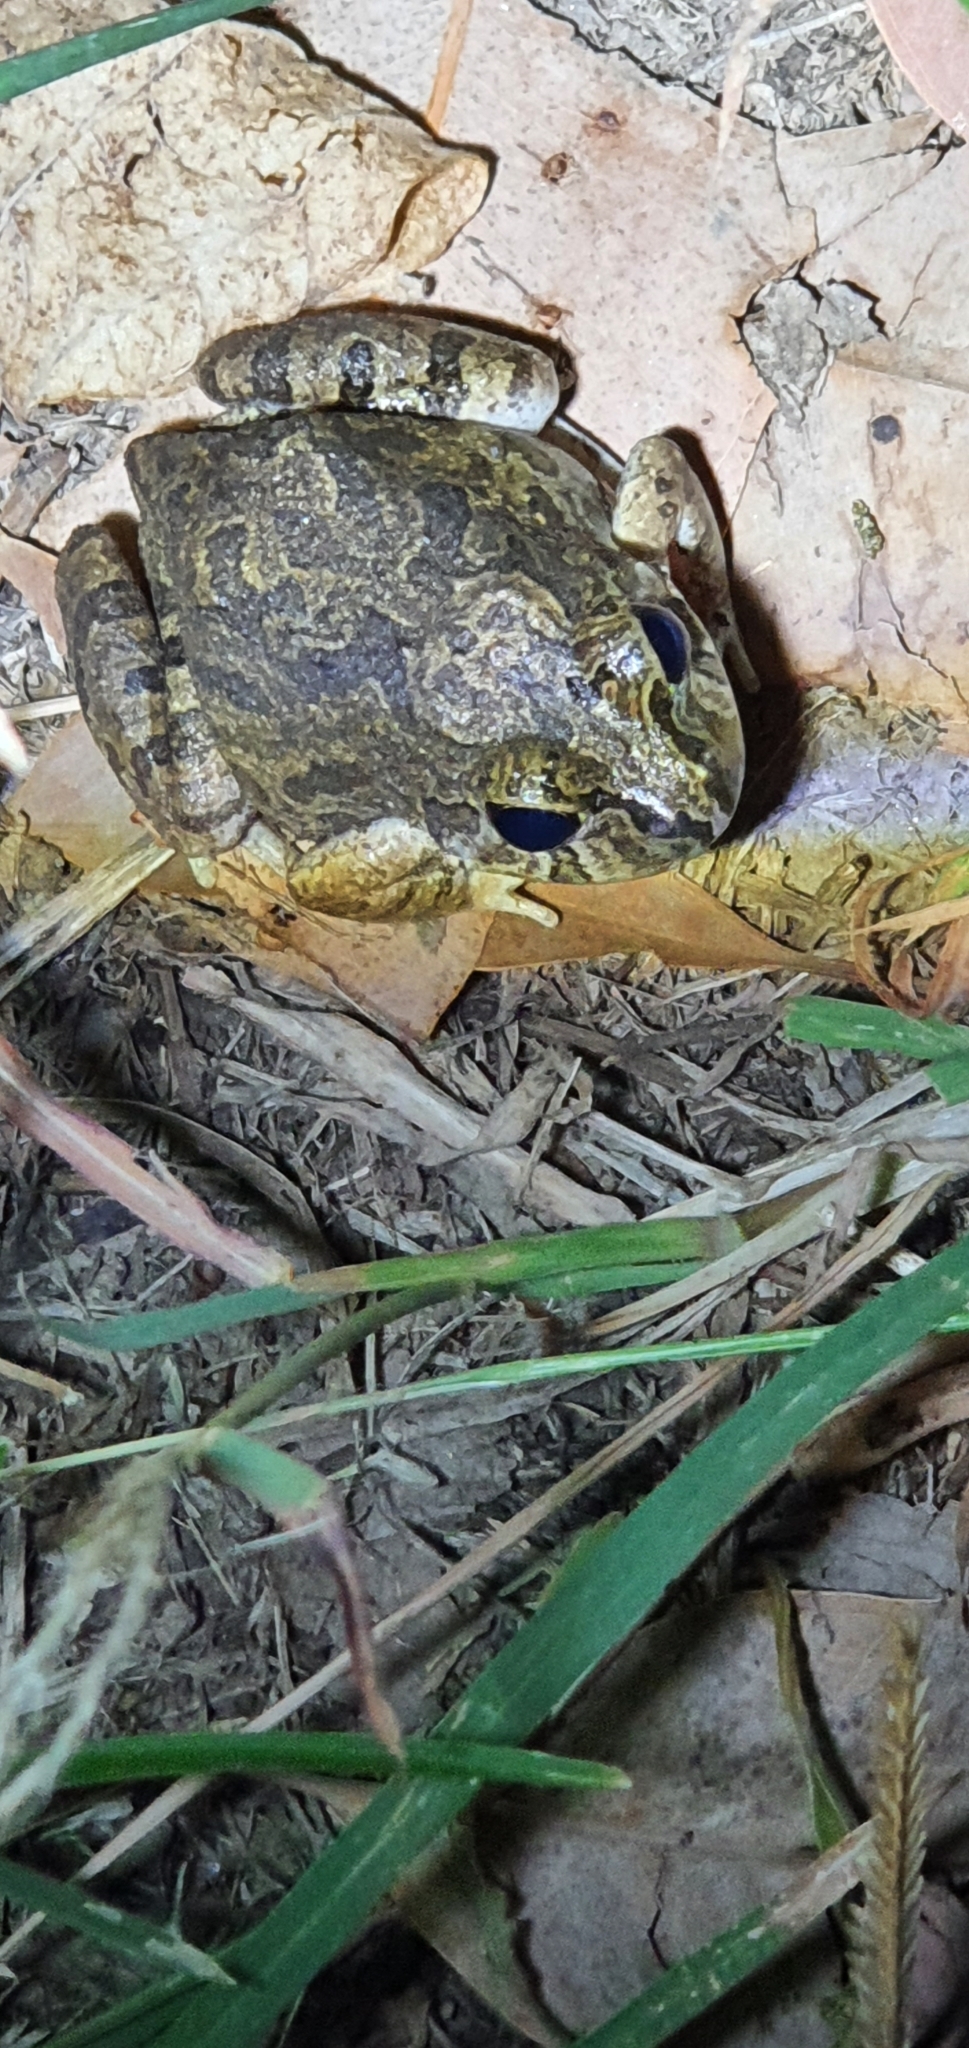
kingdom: Animalia
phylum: Chordata
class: Amphibia
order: Anura
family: Limnodynastidae
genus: Platyplectrum
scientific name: Platyplectrum ornatum
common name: Ornate burrowing frog
